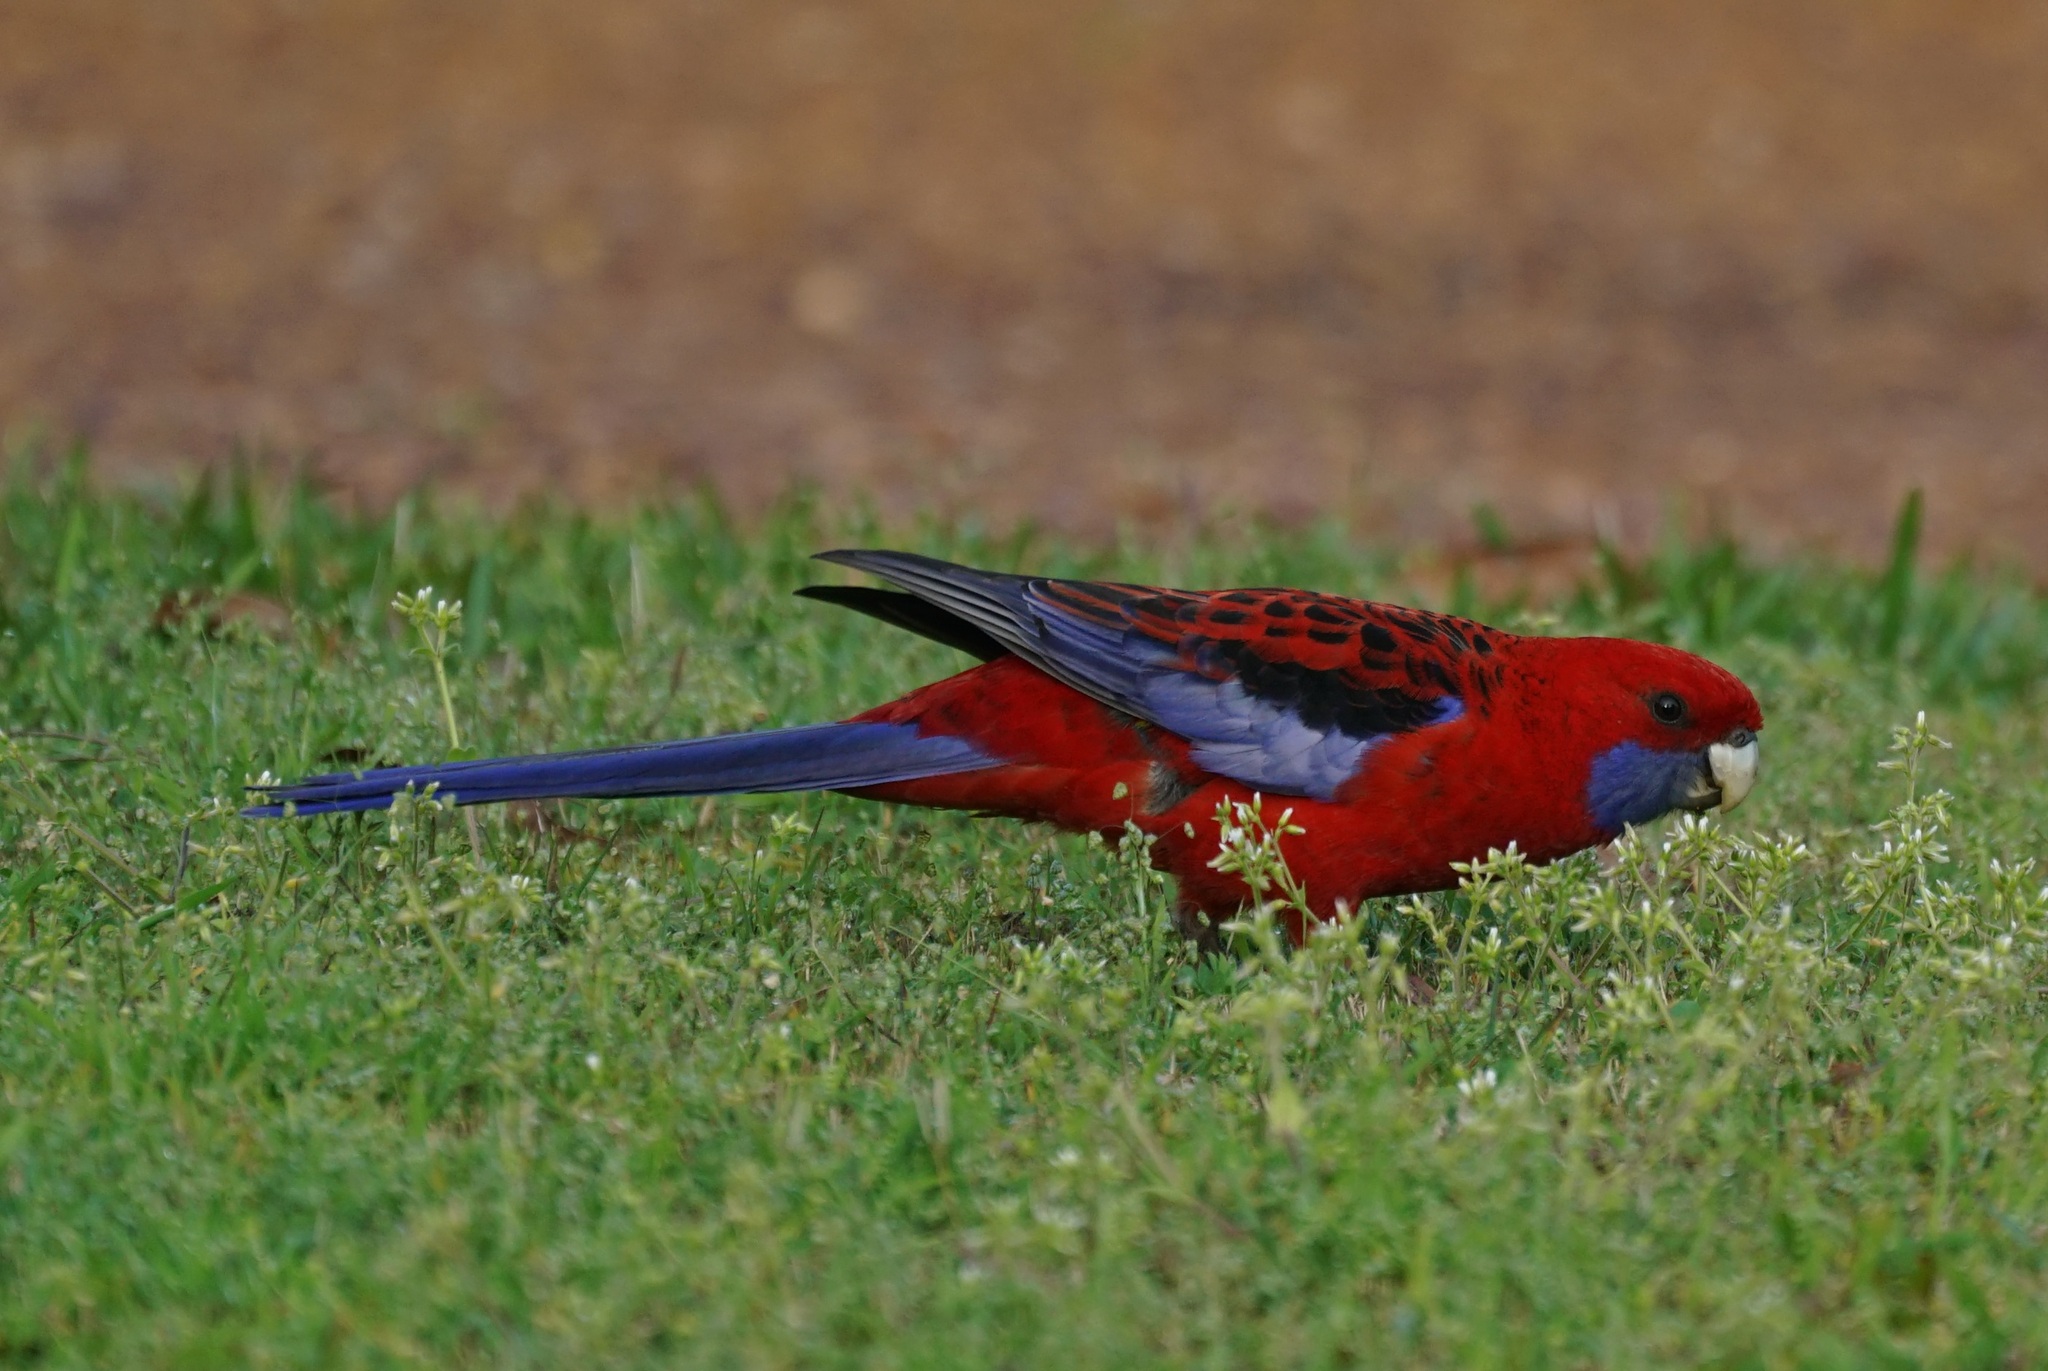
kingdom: Animalia
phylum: Chordata
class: Aves
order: Psittaciformes
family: Psittacidae
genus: Platycercus
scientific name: Platycercus elegans
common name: Crimson rosella
